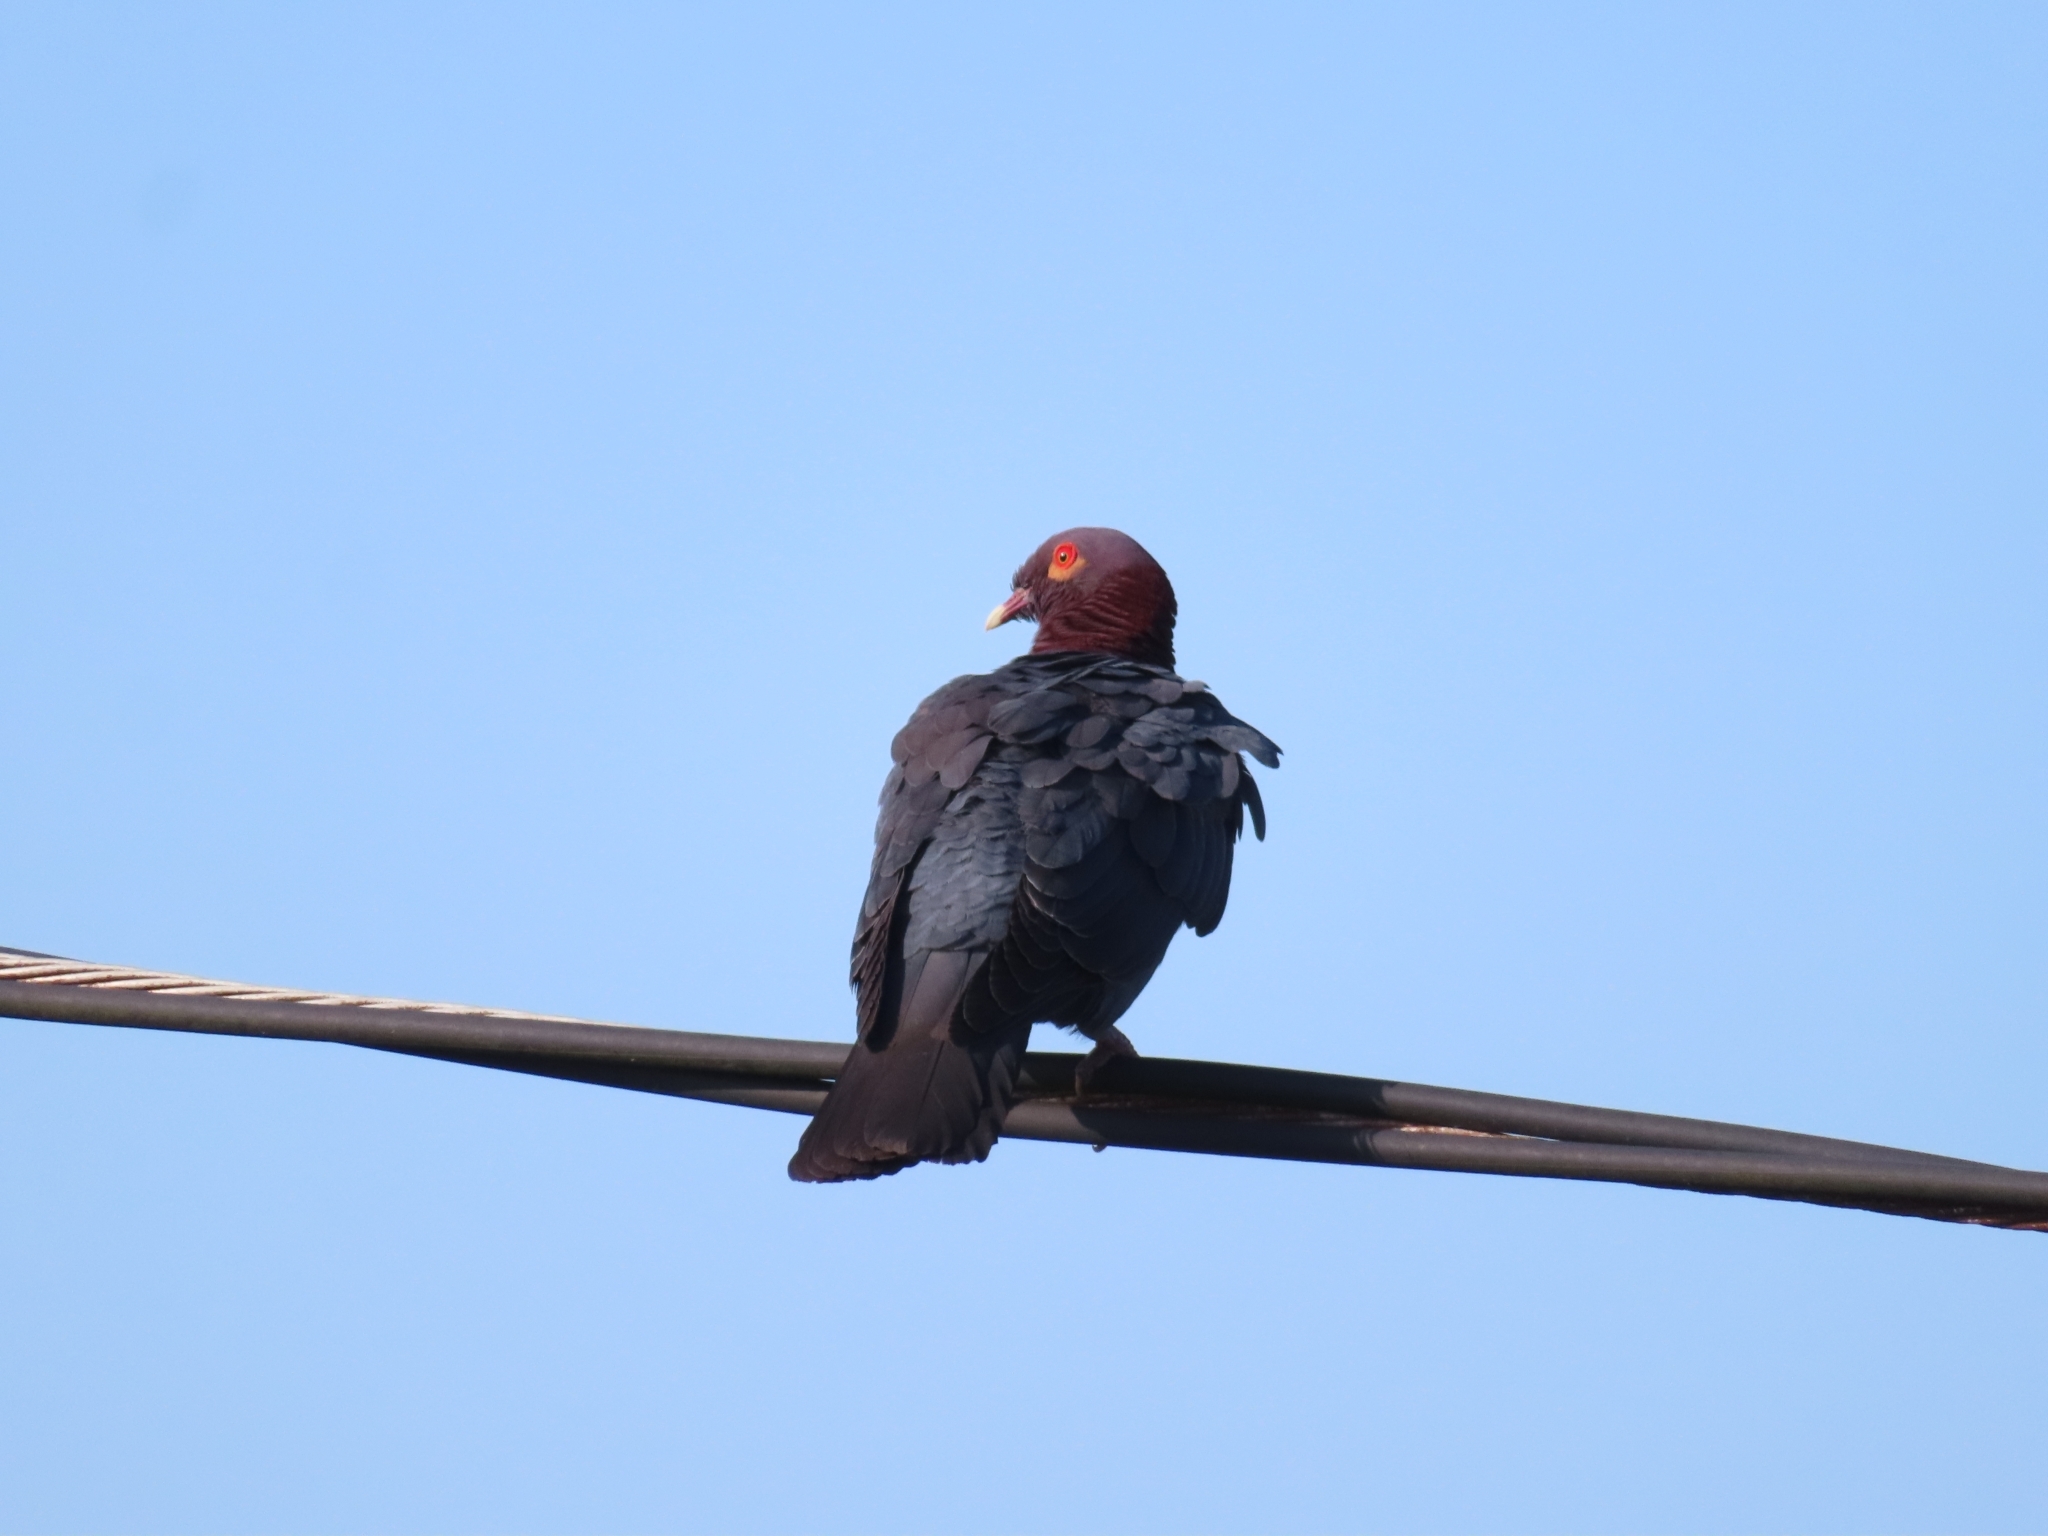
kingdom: Animalia
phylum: Chordata
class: Aves
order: Columbiformes
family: Columbidae
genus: Patagioenas
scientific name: Patagioenas squamosa
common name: Scaly-naped pigeon
